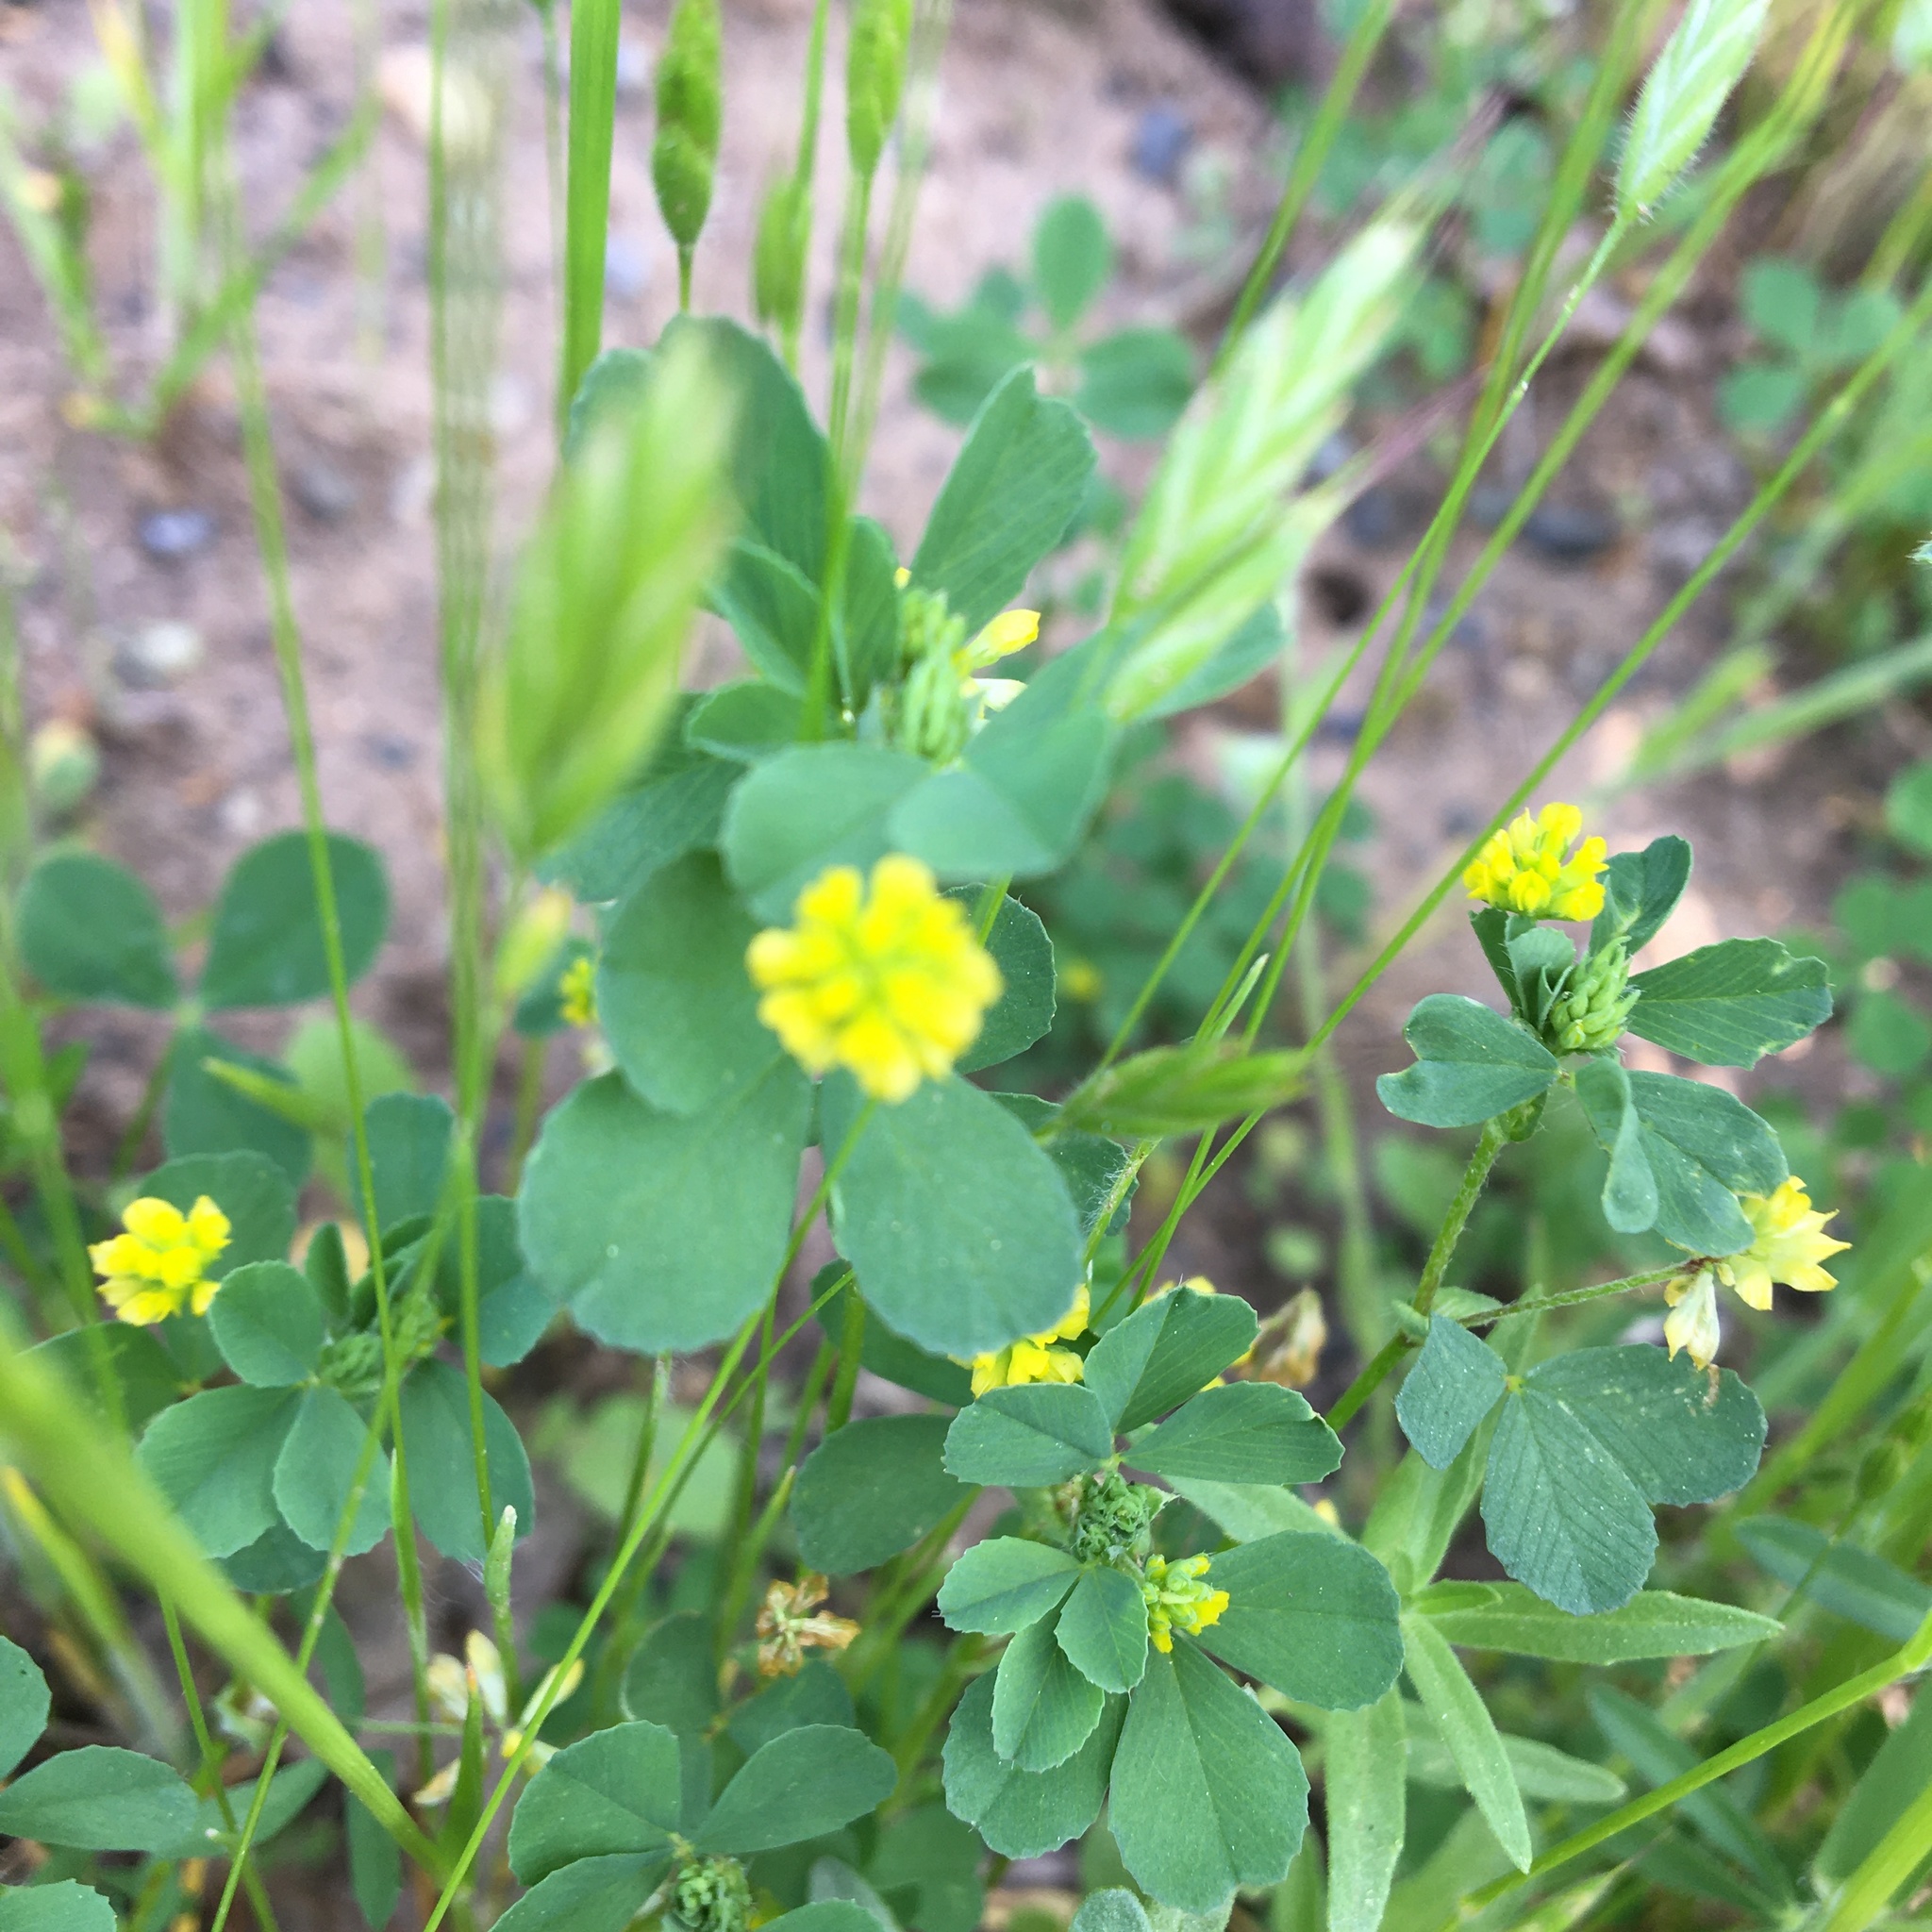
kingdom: Plantae
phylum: Tracheophyta
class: Magnoliopsida
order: Fabales
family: Fabaceae
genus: Trifolium
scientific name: Trifolium dubium
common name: Suckling clover
